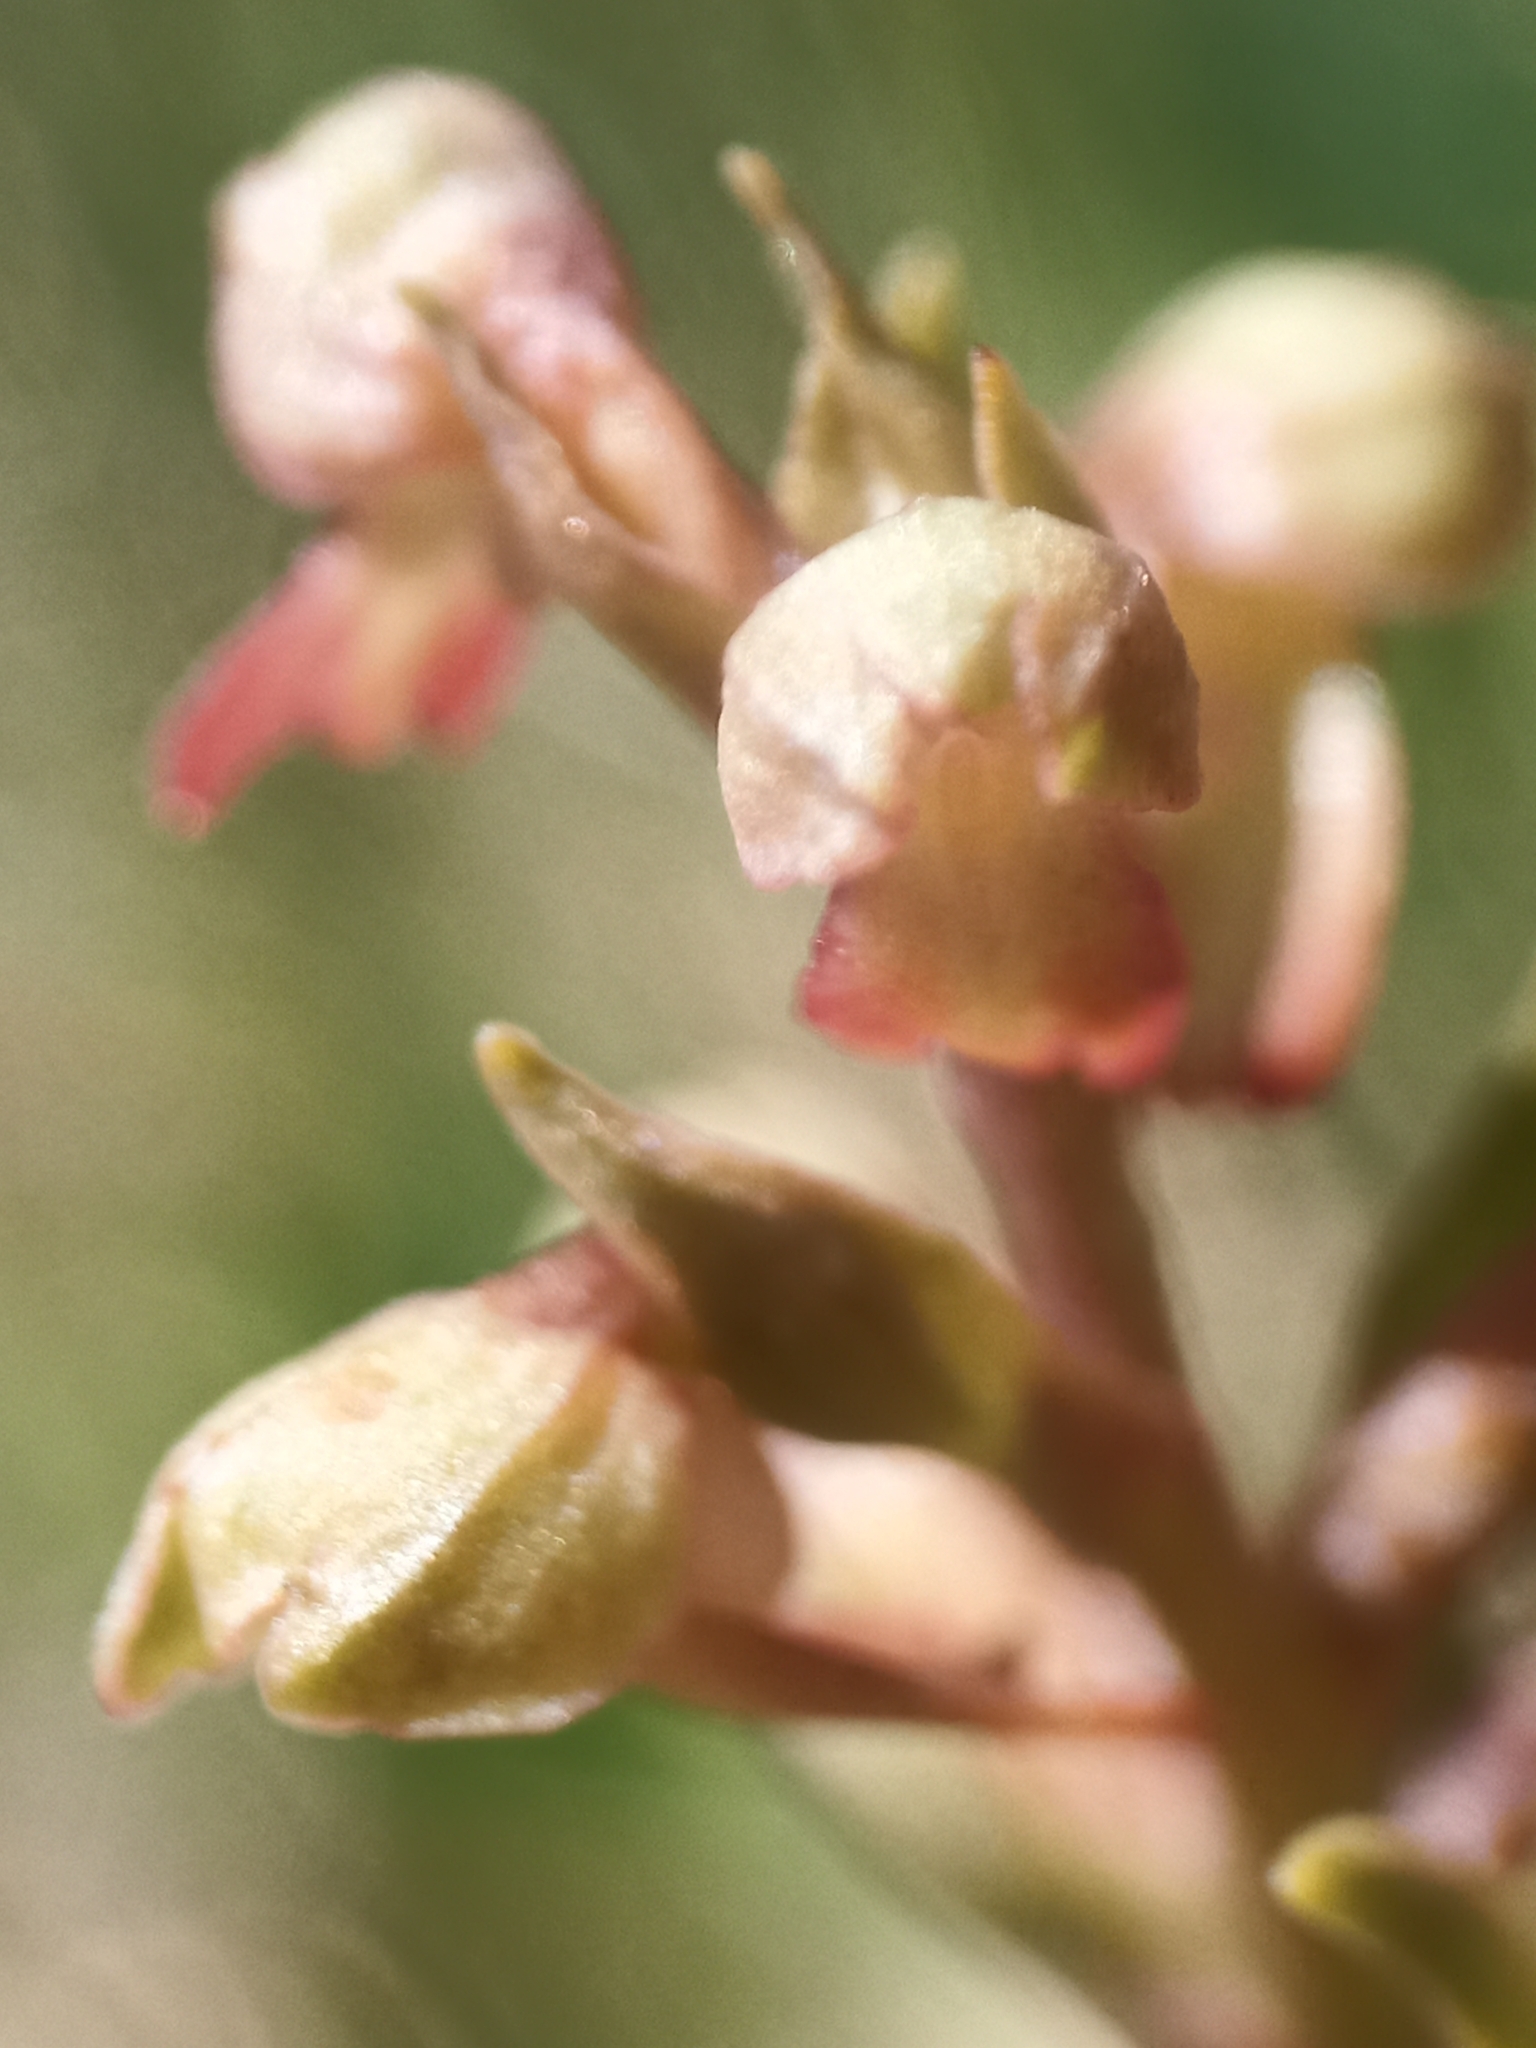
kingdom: Plantae
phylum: Tracheophyta
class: Liliopsida
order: Asparagales
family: Orchidaceae
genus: Dactylorhiza
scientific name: Dactylorhiza viridis
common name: Longbract frog orchid
